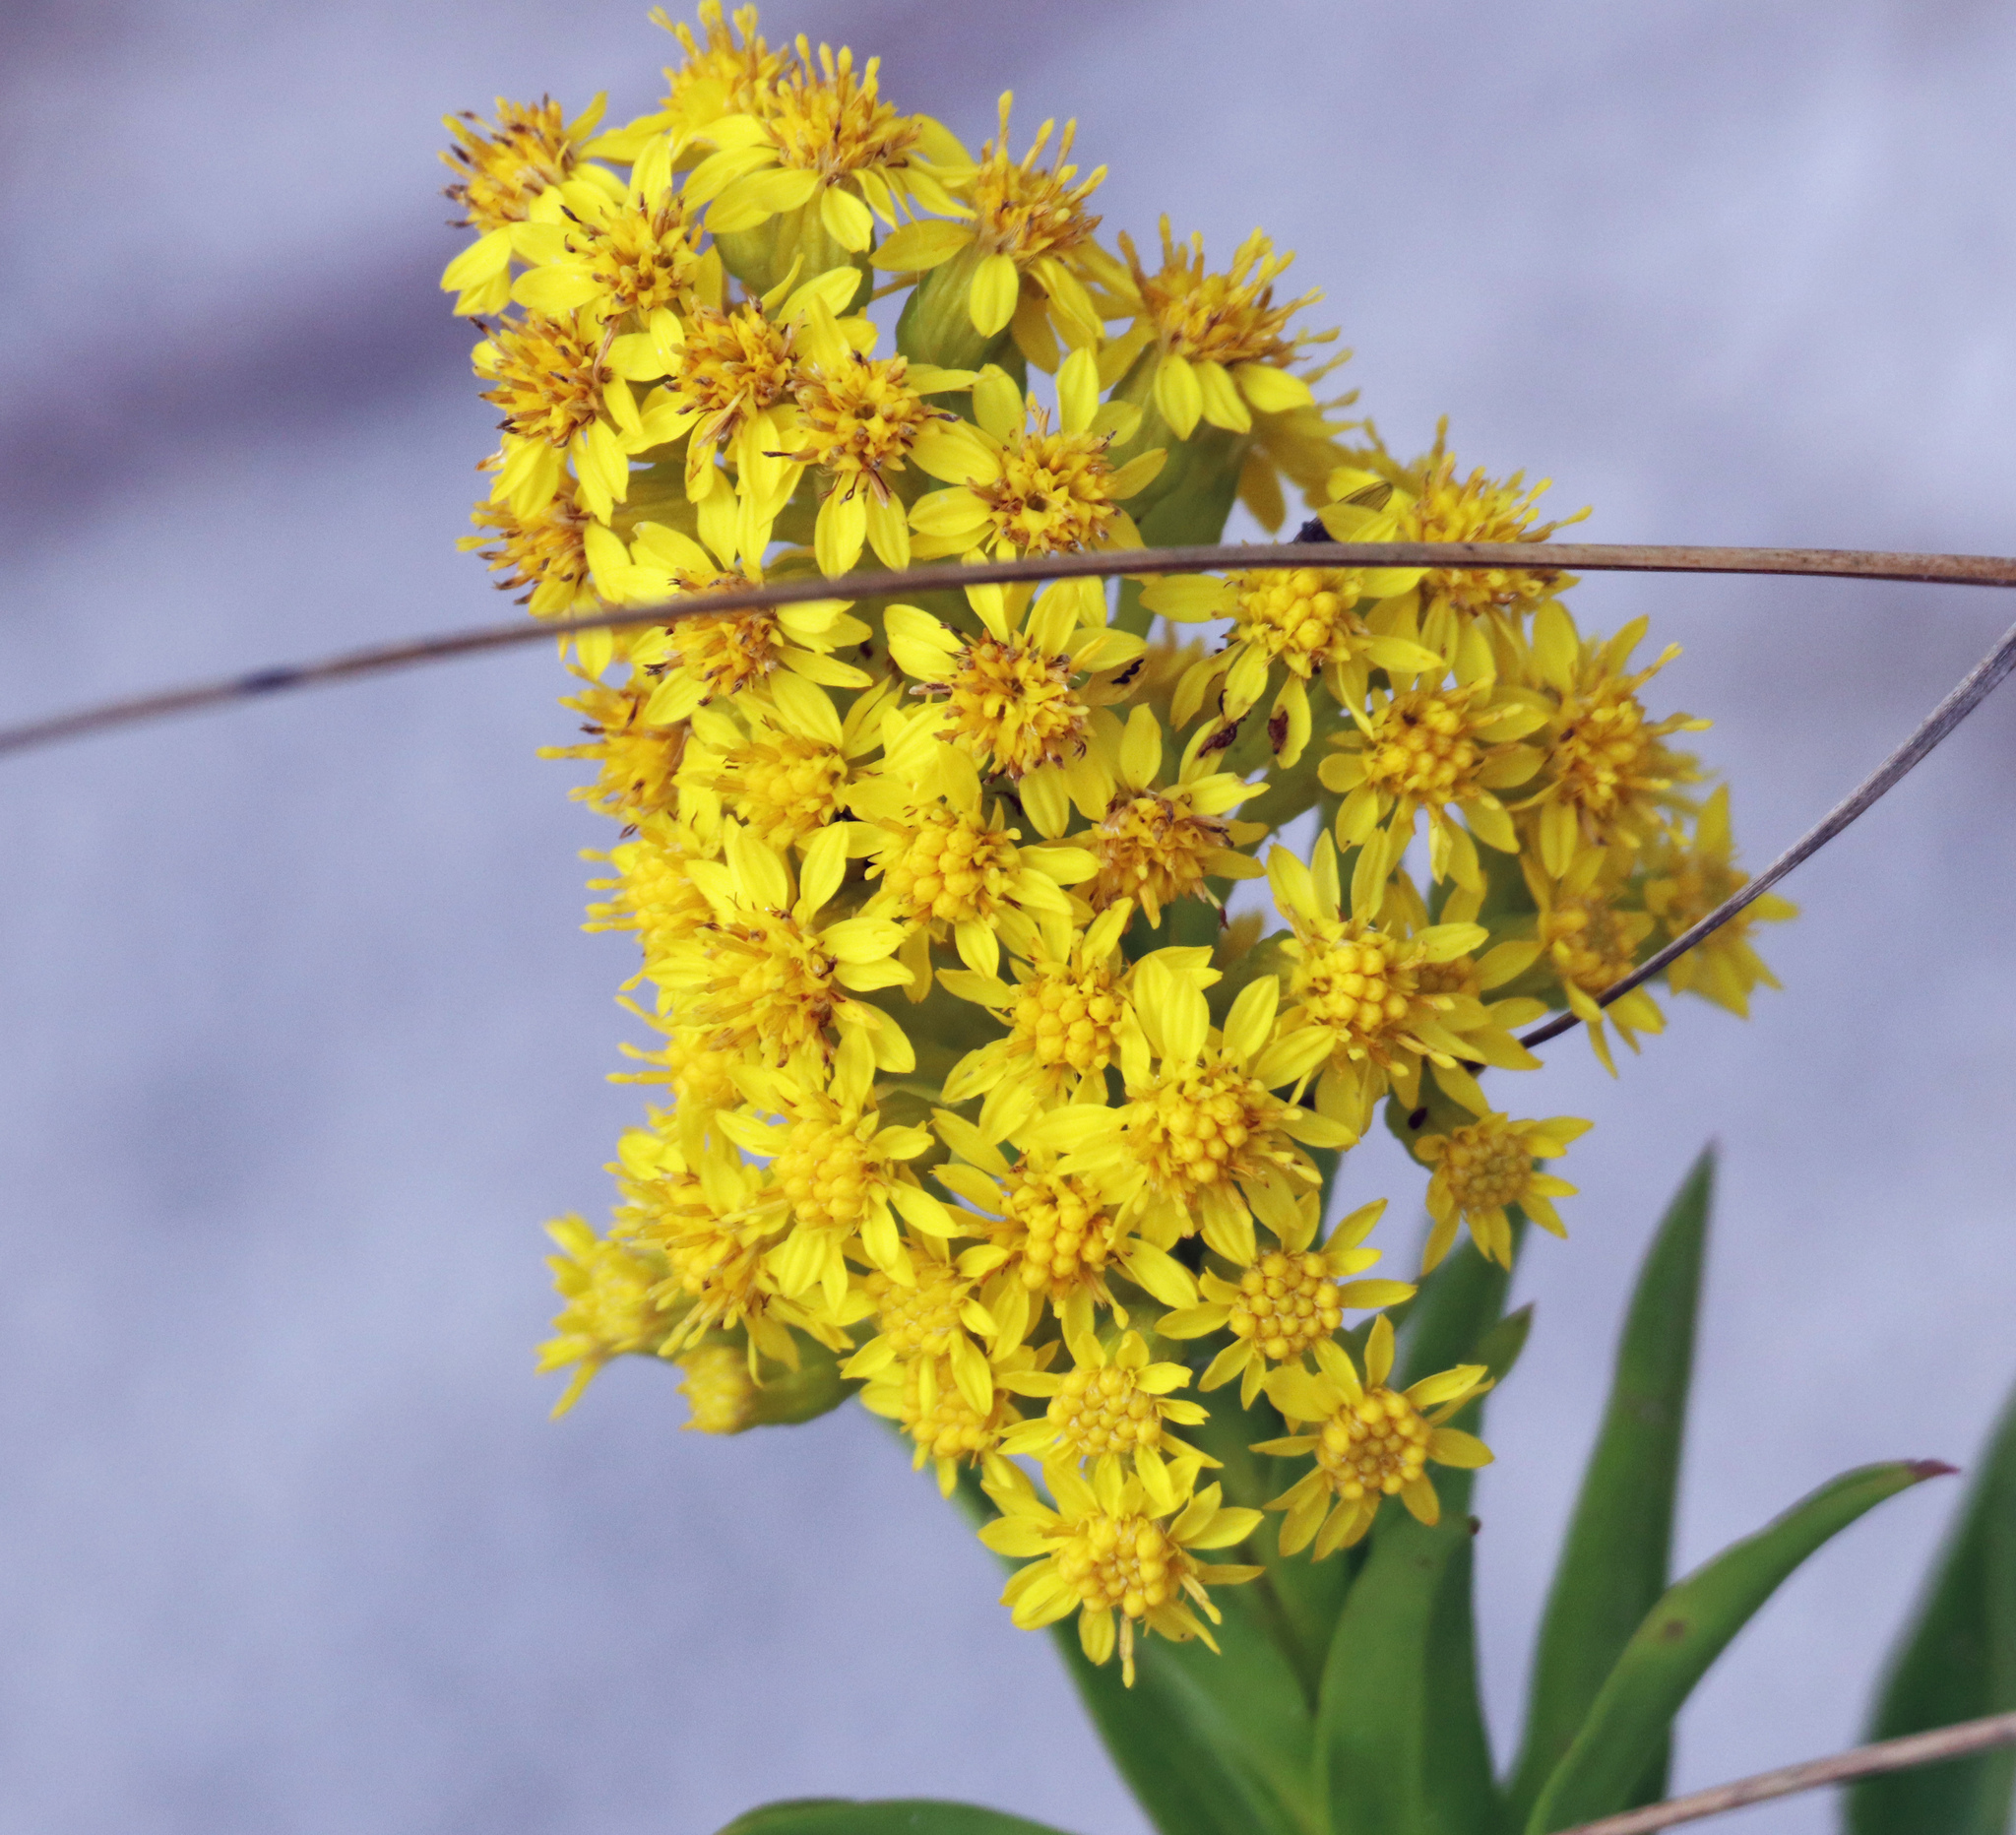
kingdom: Plantae
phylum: Tracheophyta
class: Magnoliopsida
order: Asterales
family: Asteraceae
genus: Solidago
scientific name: Solidago sempervirens
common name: Salt-marsh goldenrod
